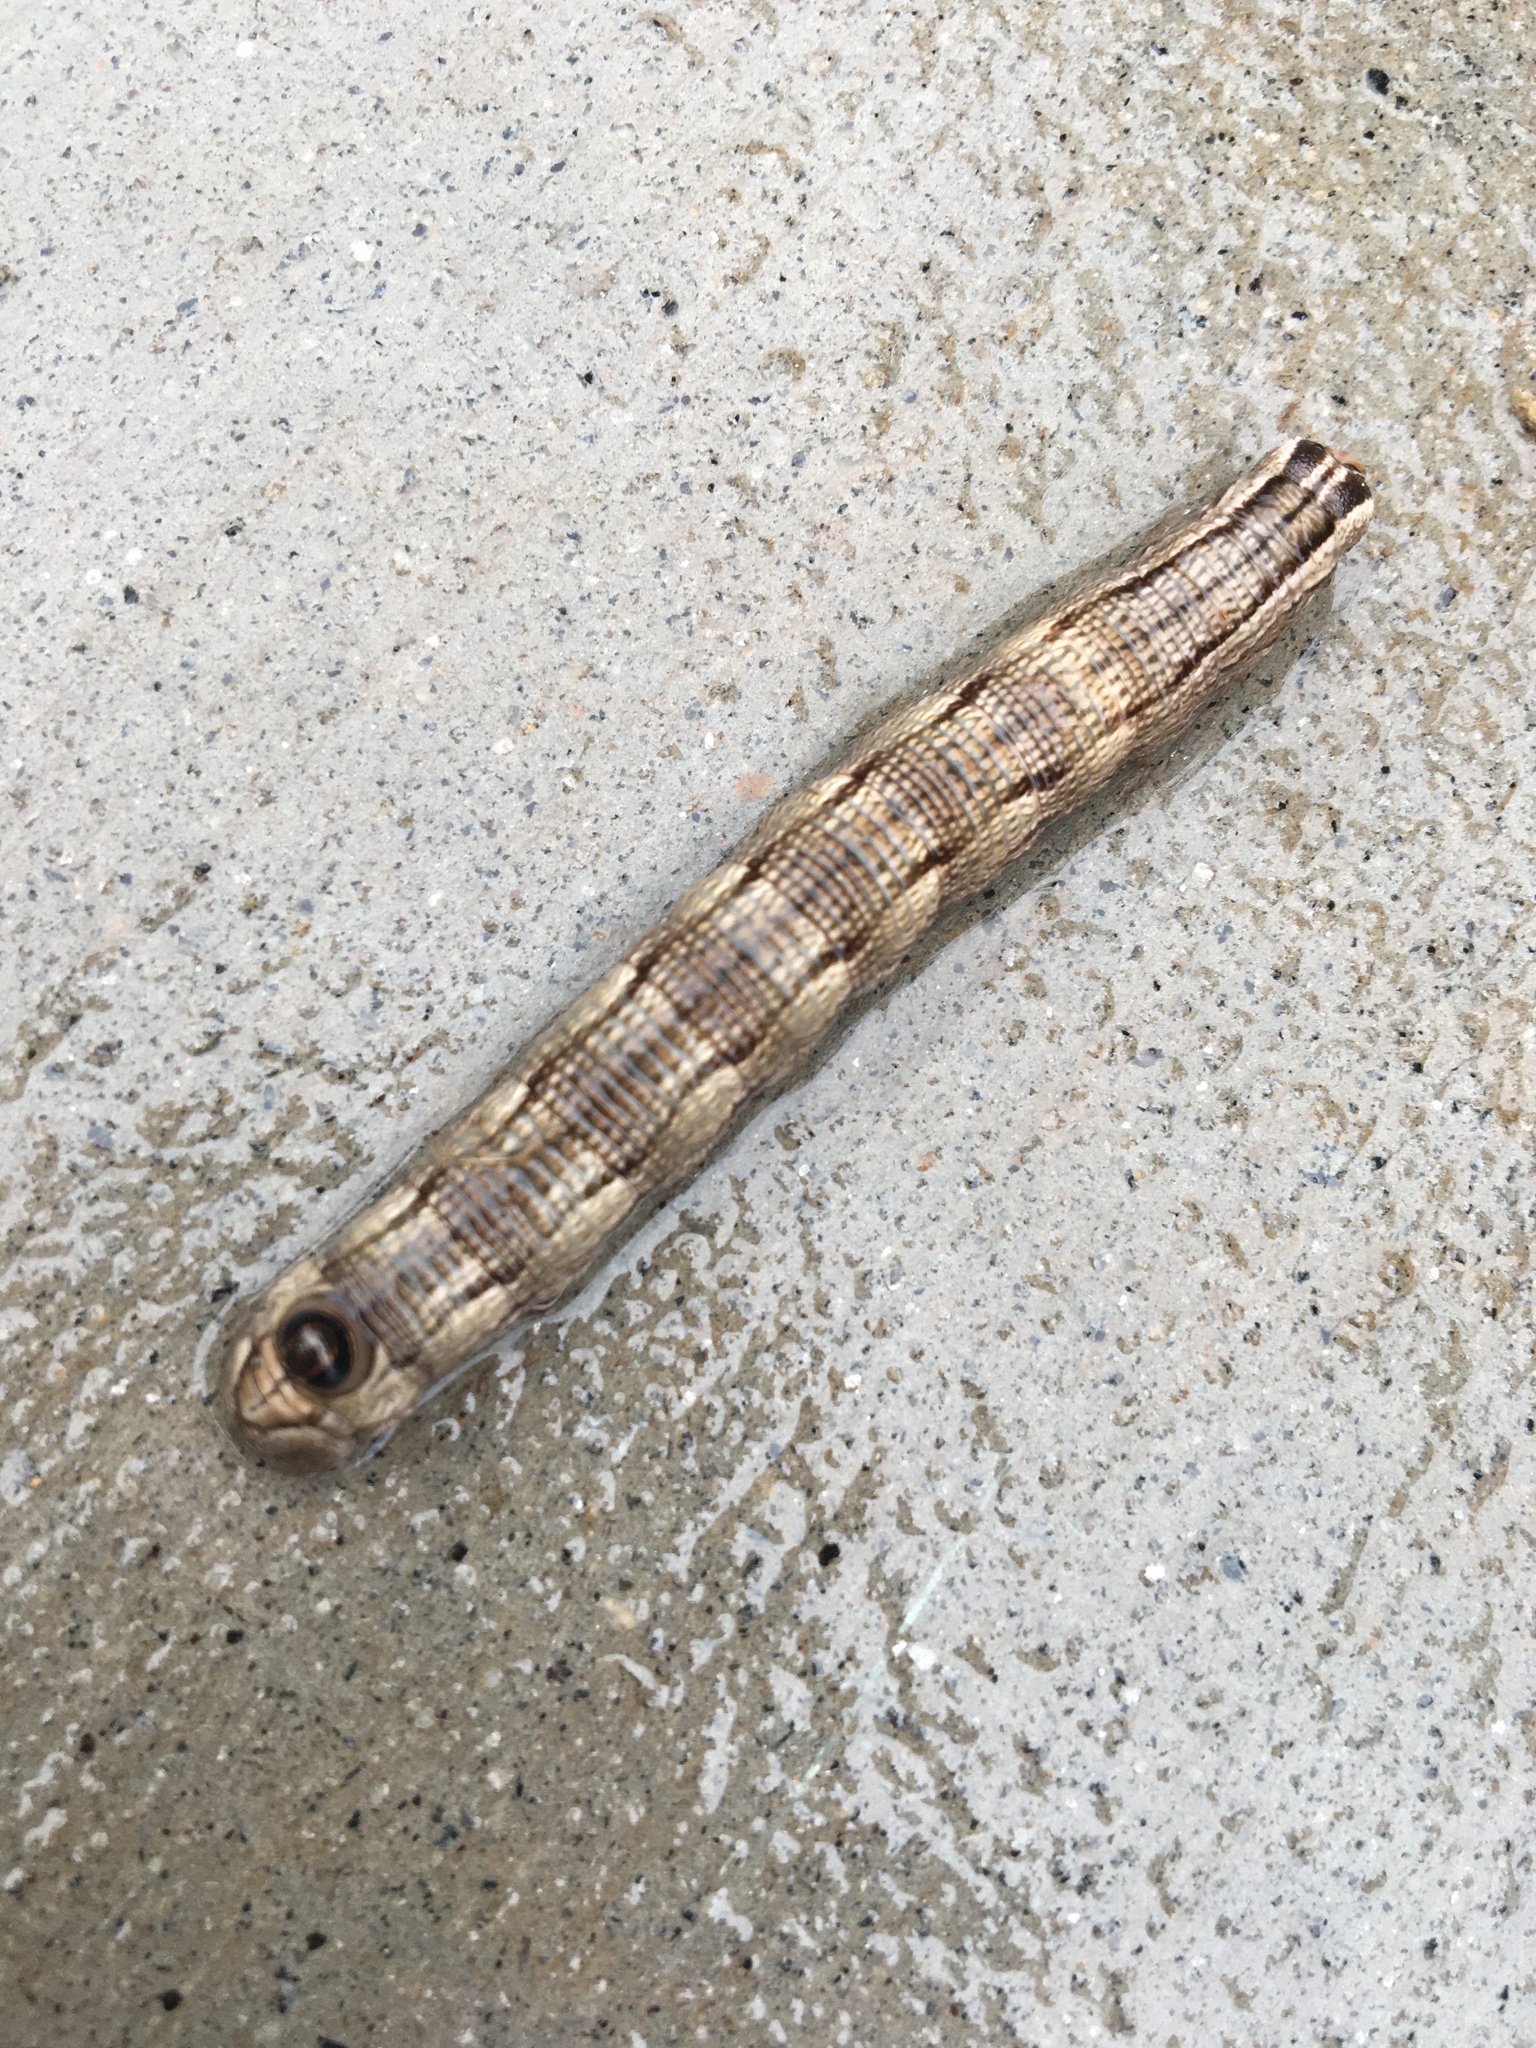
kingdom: Animalia
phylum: Arthropoda
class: Insecta
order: Lepidoptera
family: Sphingidae
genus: Sphecodina
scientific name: Sphecodina abbottii
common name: Abbott's sphinx
